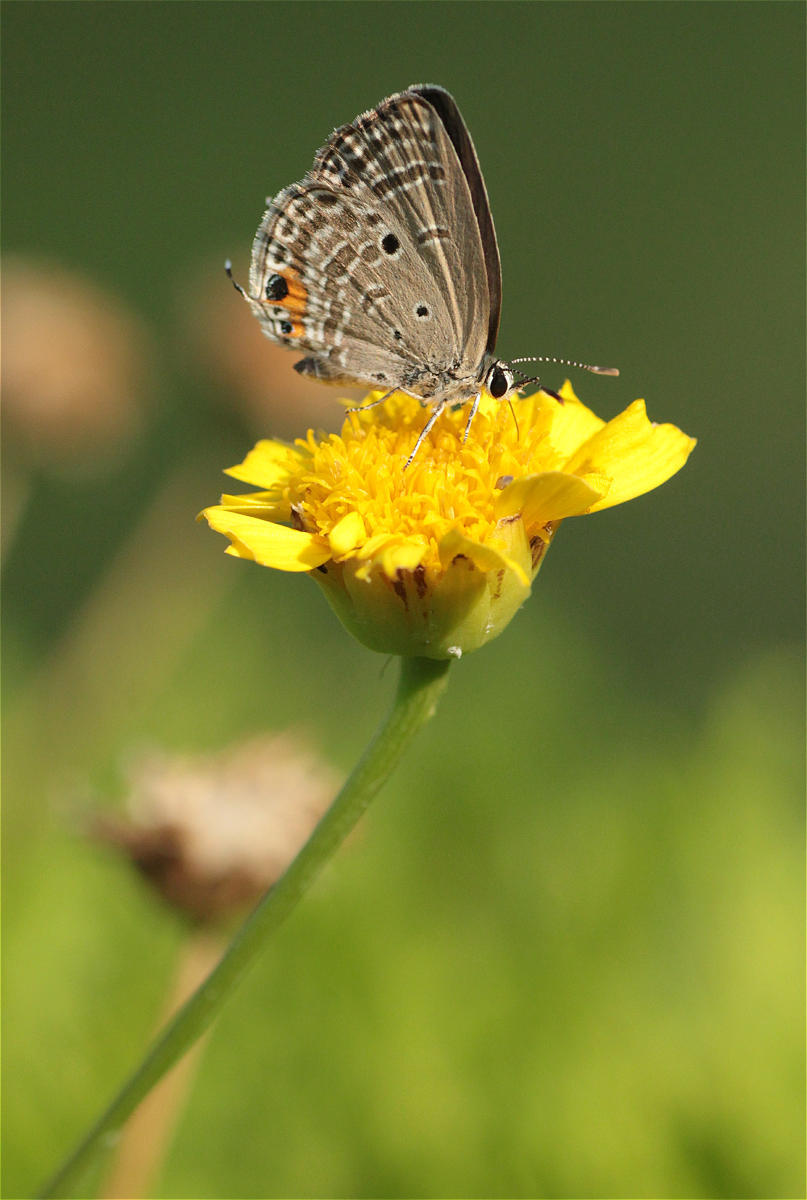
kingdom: Animalia
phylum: Arthropoda
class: Insecta
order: Lepidoptera
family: Lycaenidae
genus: Luthrodes
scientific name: Luthrodes pandava
